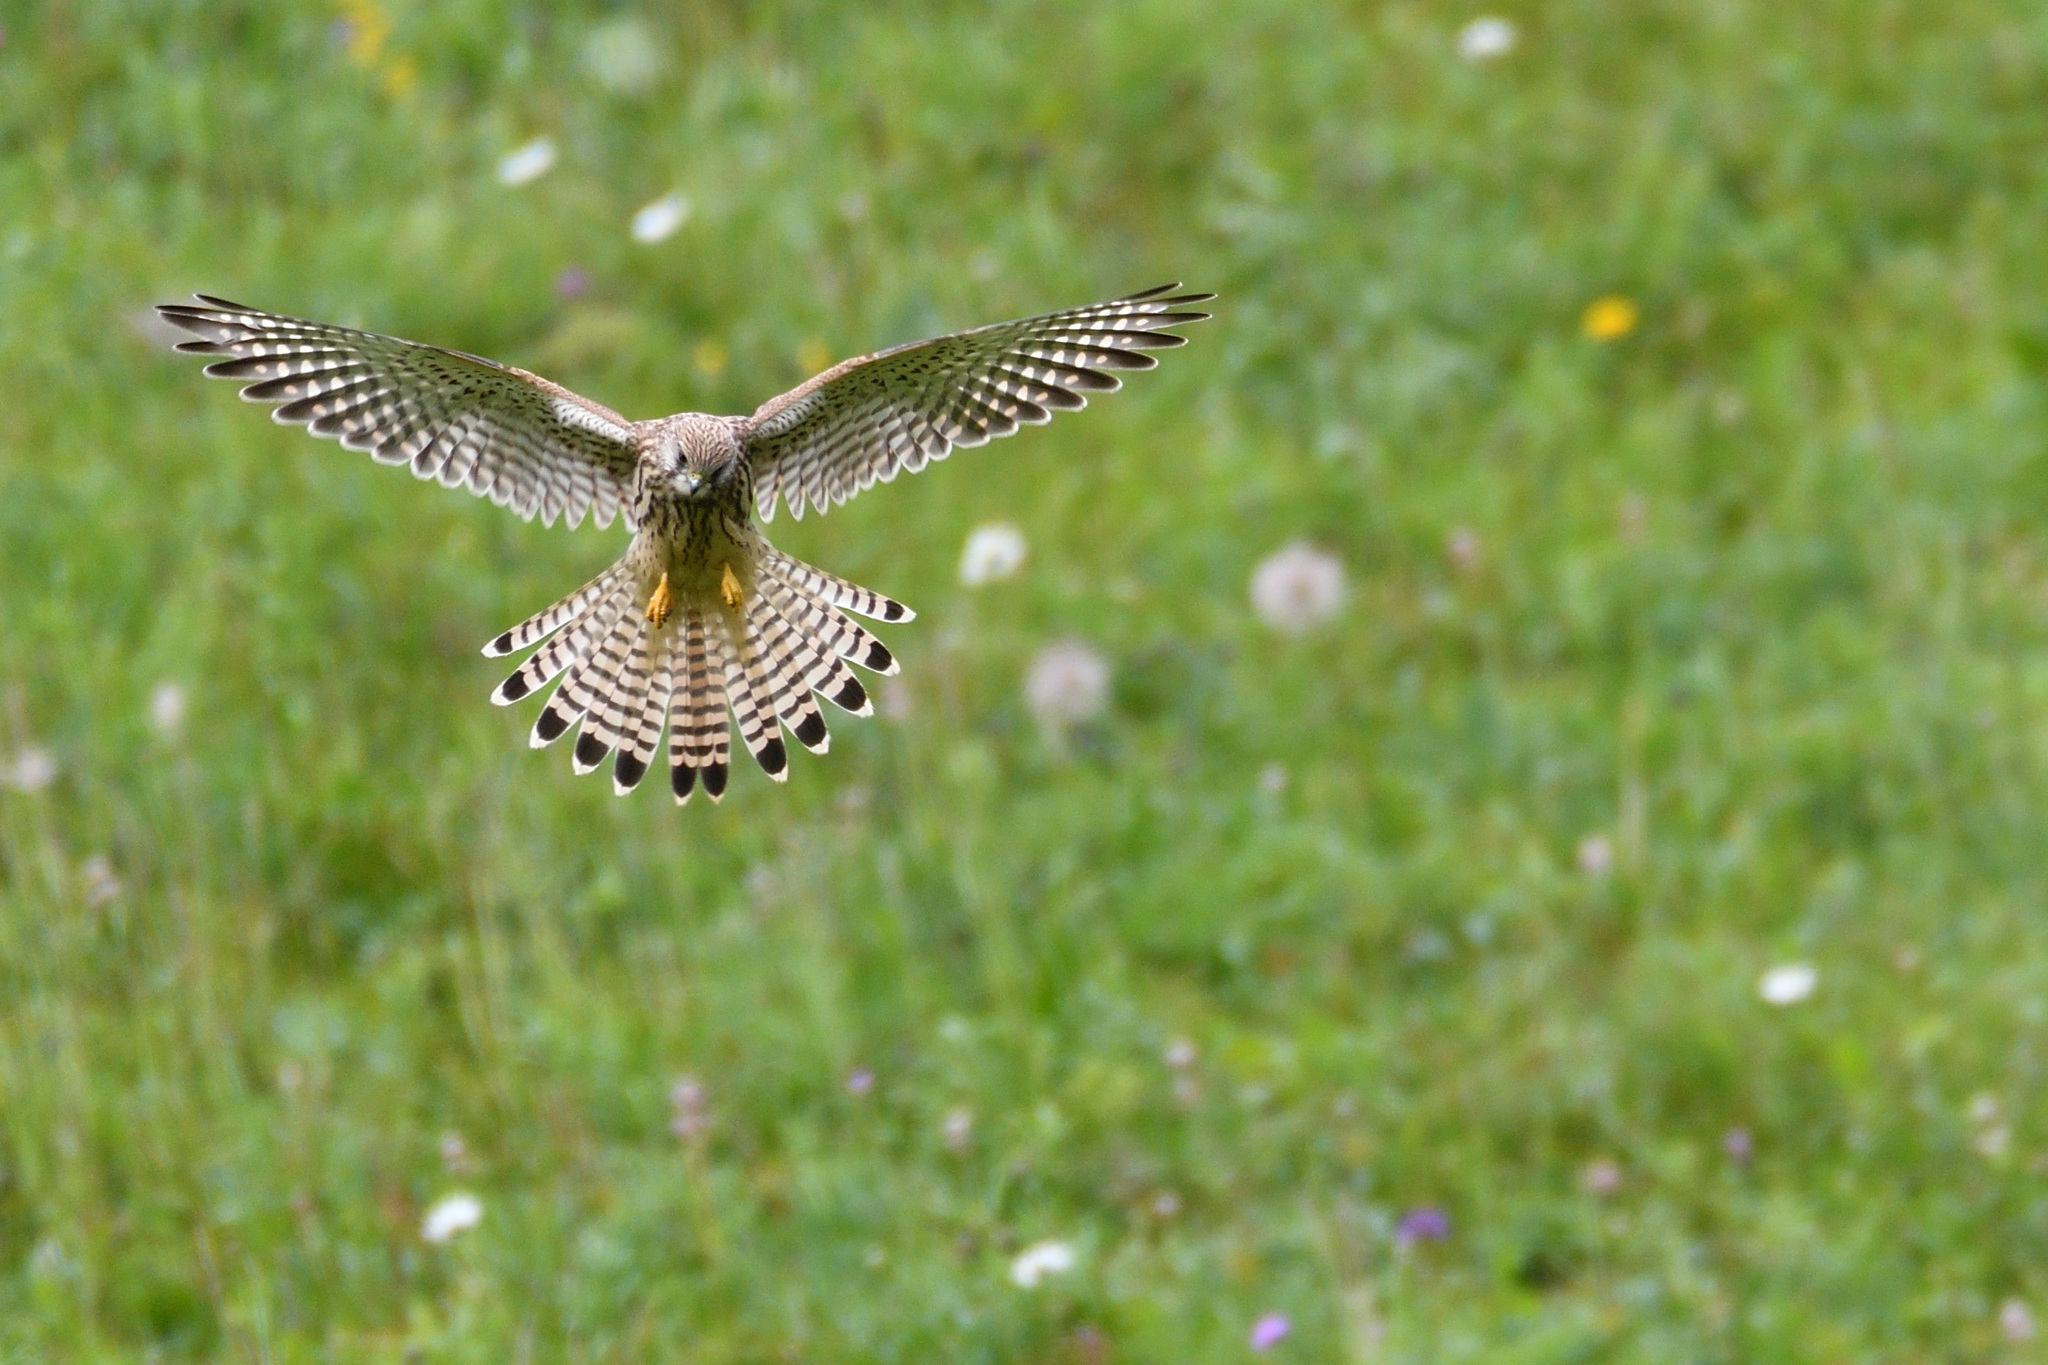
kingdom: Animalia
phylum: Chordata
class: Aves
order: Falconiformes
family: Falconidae
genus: Falco
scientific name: Falco tinnunculus
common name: Common kestrel
